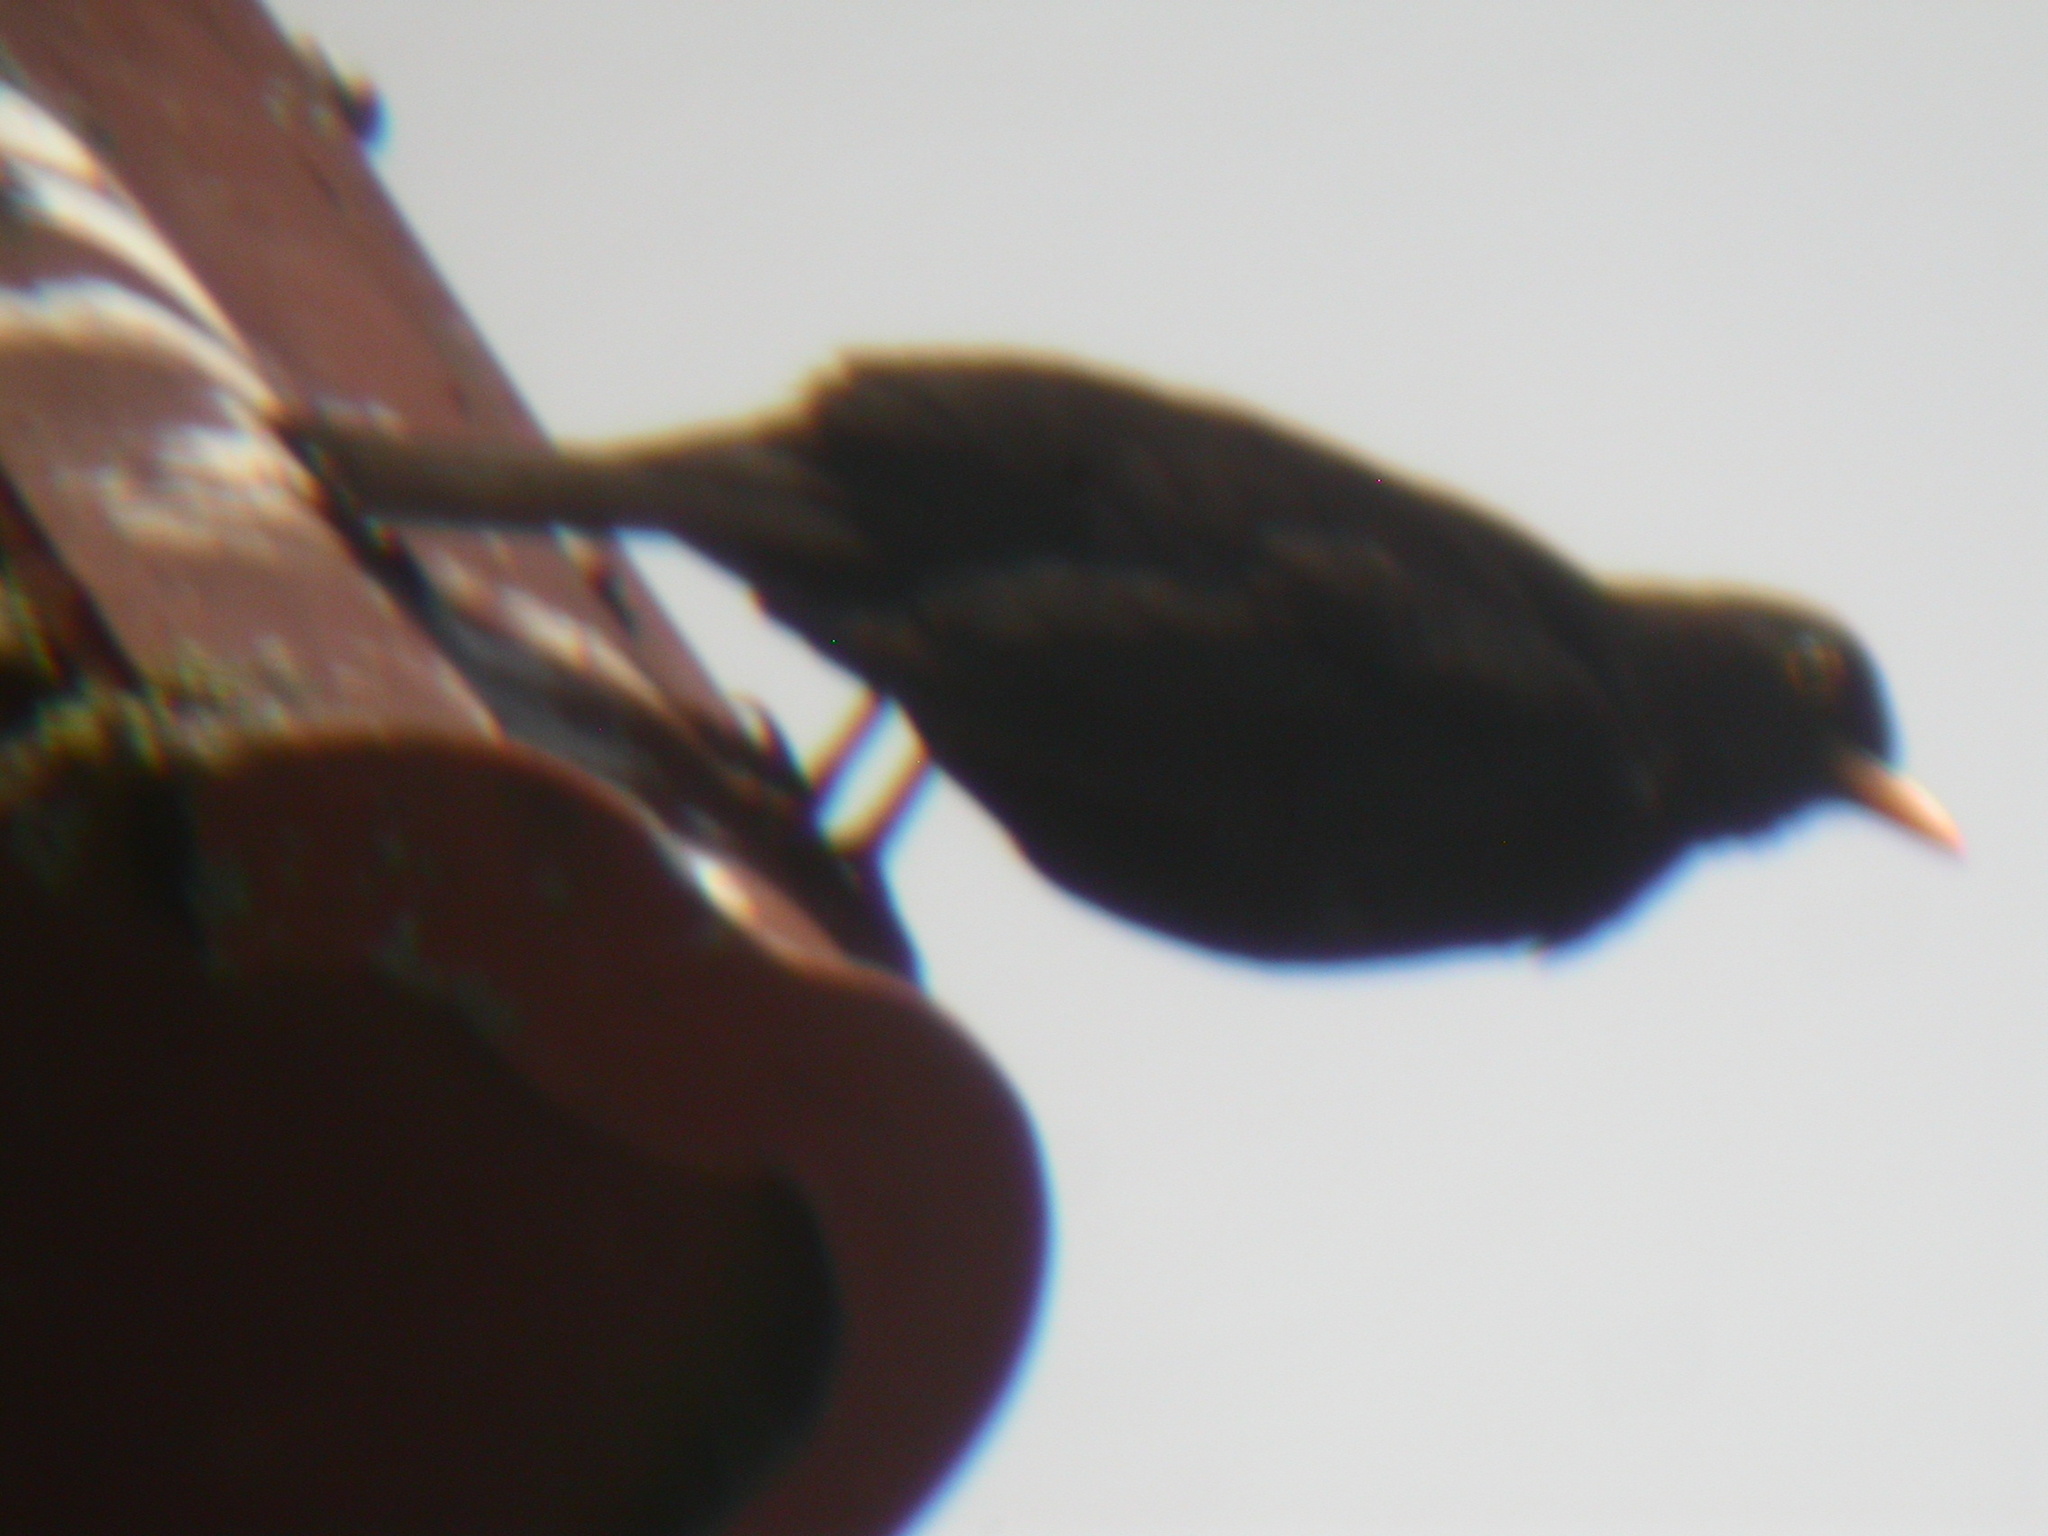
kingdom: Animalia
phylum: Chordata
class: Aves
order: Passeriformes
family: Turdidae
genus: Turdus
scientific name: Turdus merula
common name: Common blackbird
